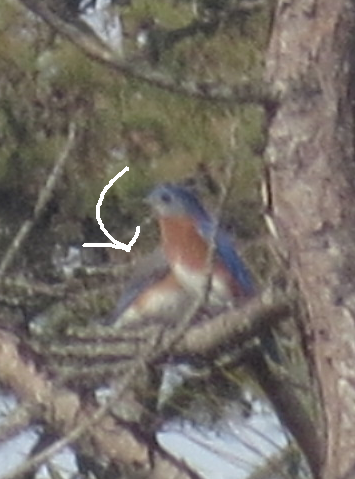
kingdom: Animalia
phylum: Chordata
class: Aves
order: Passeriformes
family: Turdidae
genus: Sialia
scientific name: Sialia sialis
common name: Eastern bluebird
